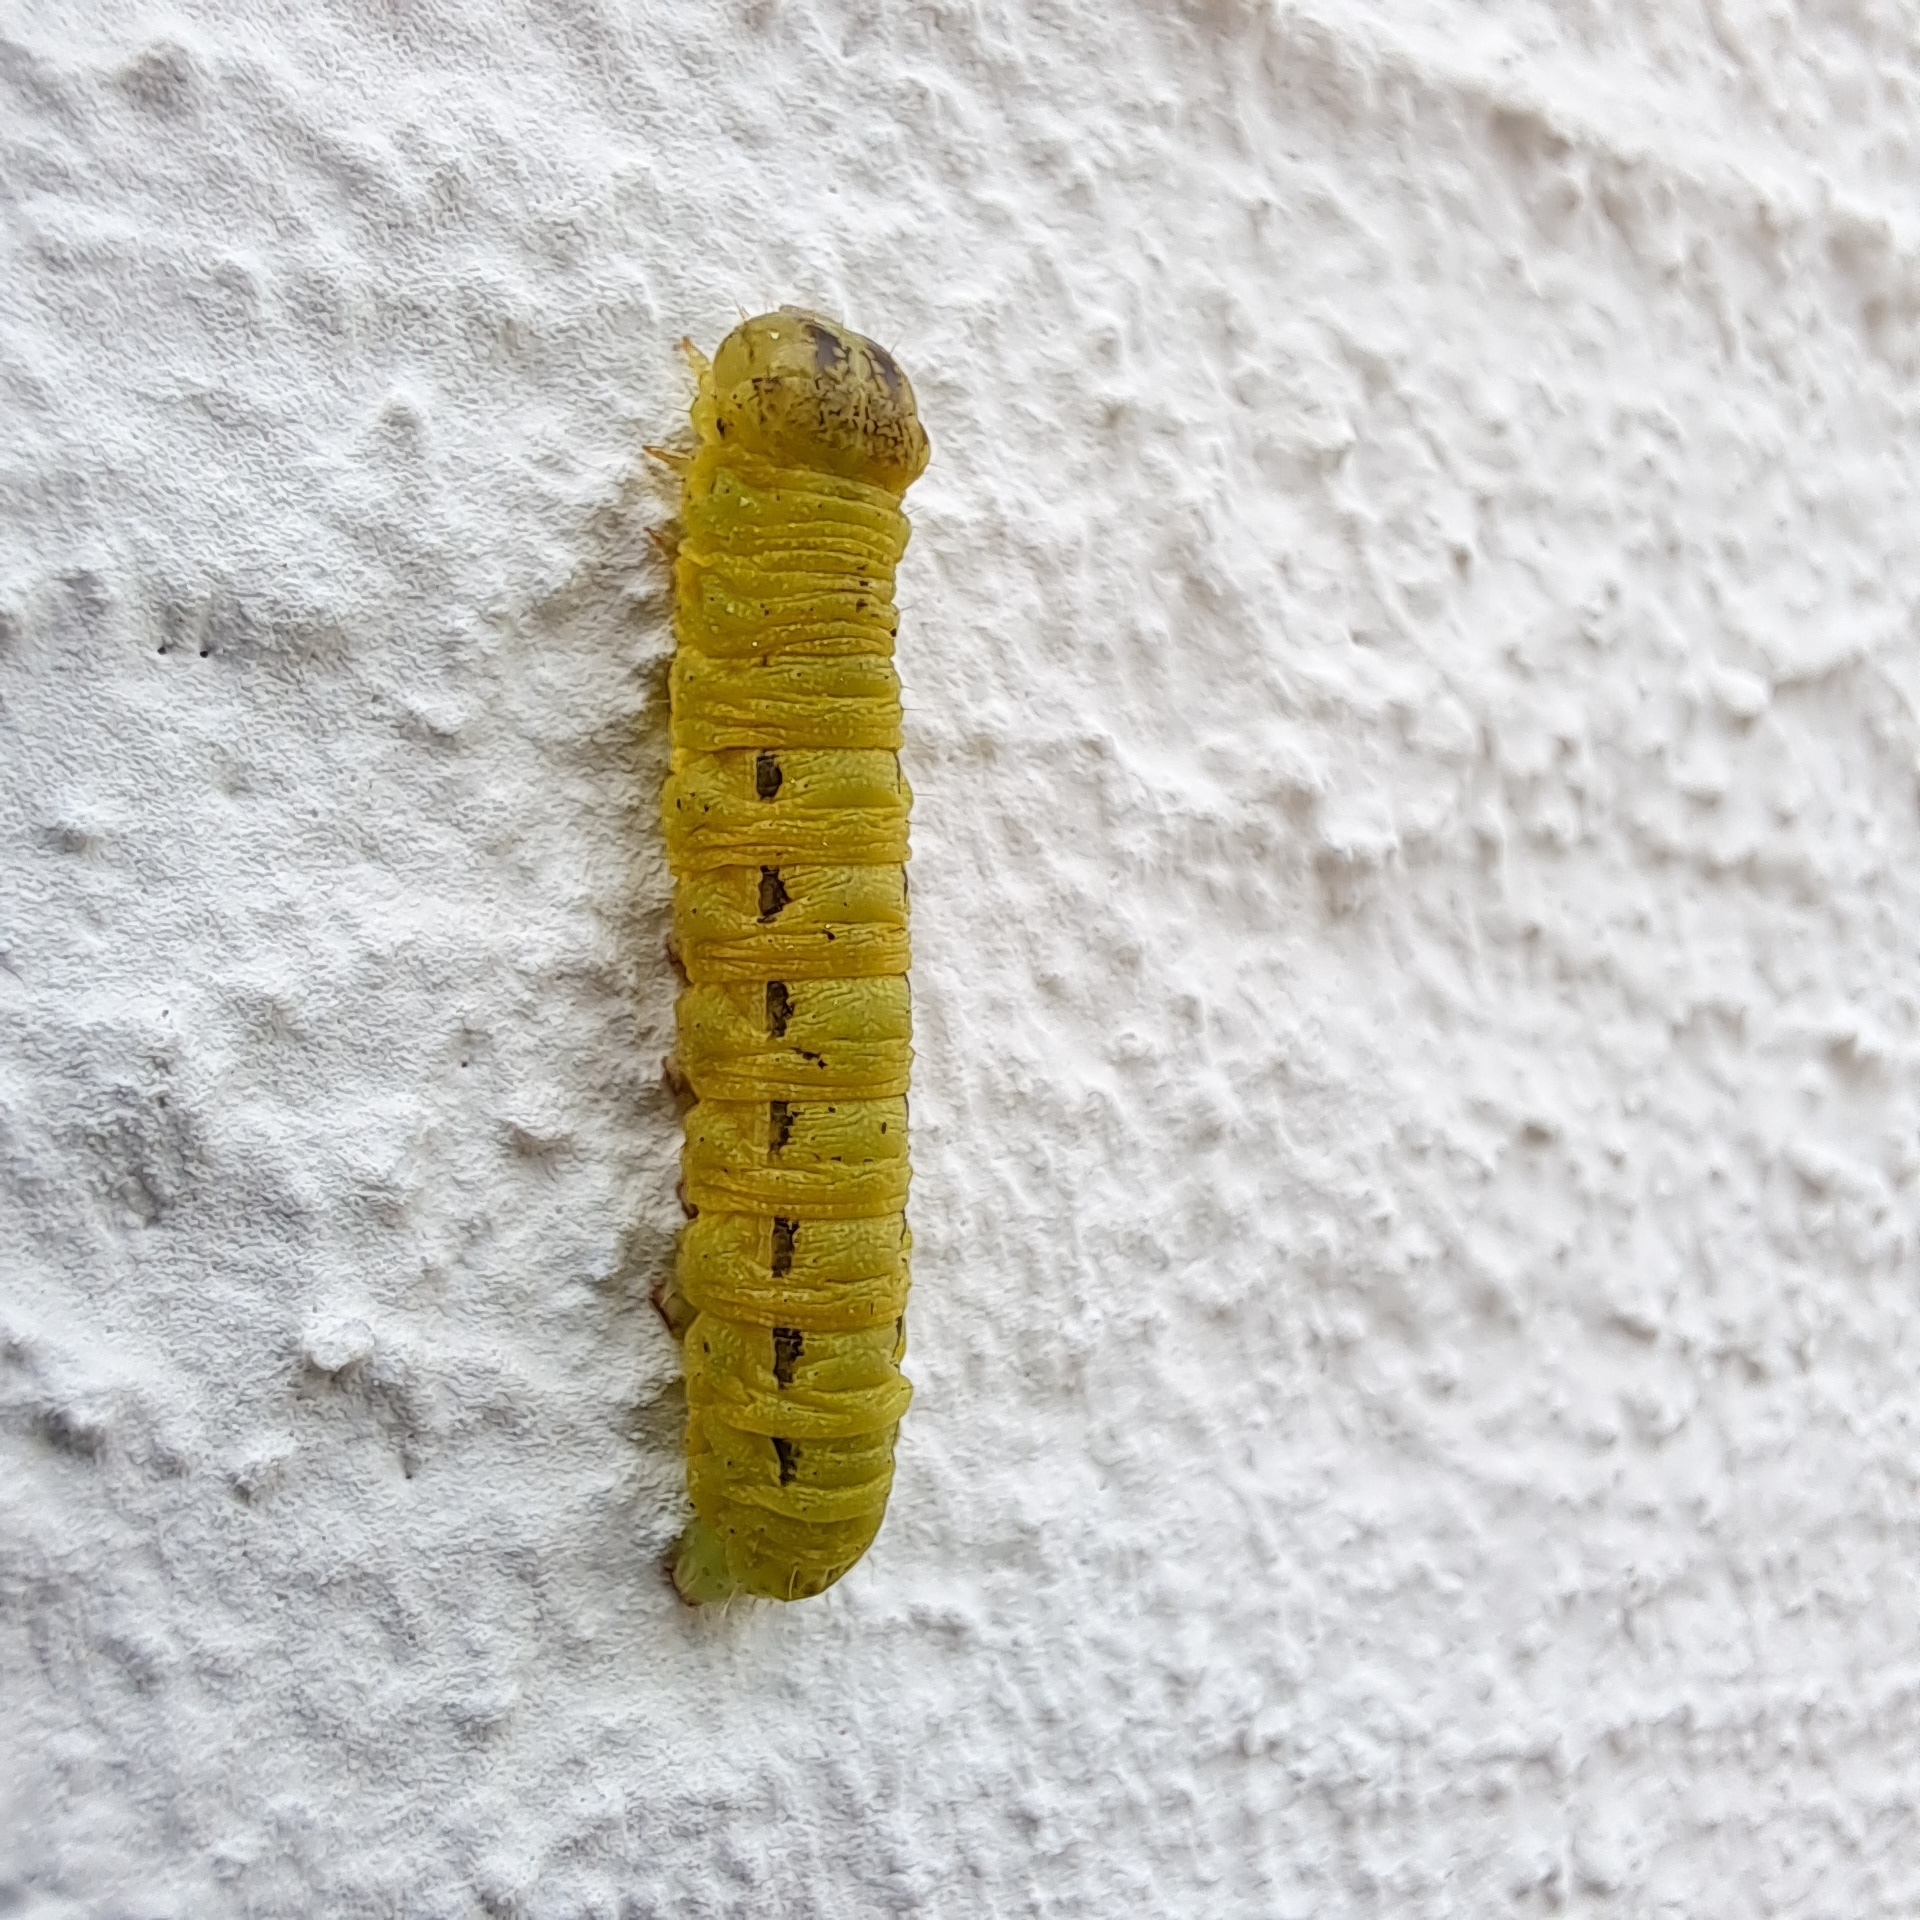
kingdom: Animalia
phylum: Arthropoda
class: Insecta
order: Lepidoptera
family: Noctuidae
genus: Noctua
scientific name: Noctua pronuba
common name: Large yellow underwing
